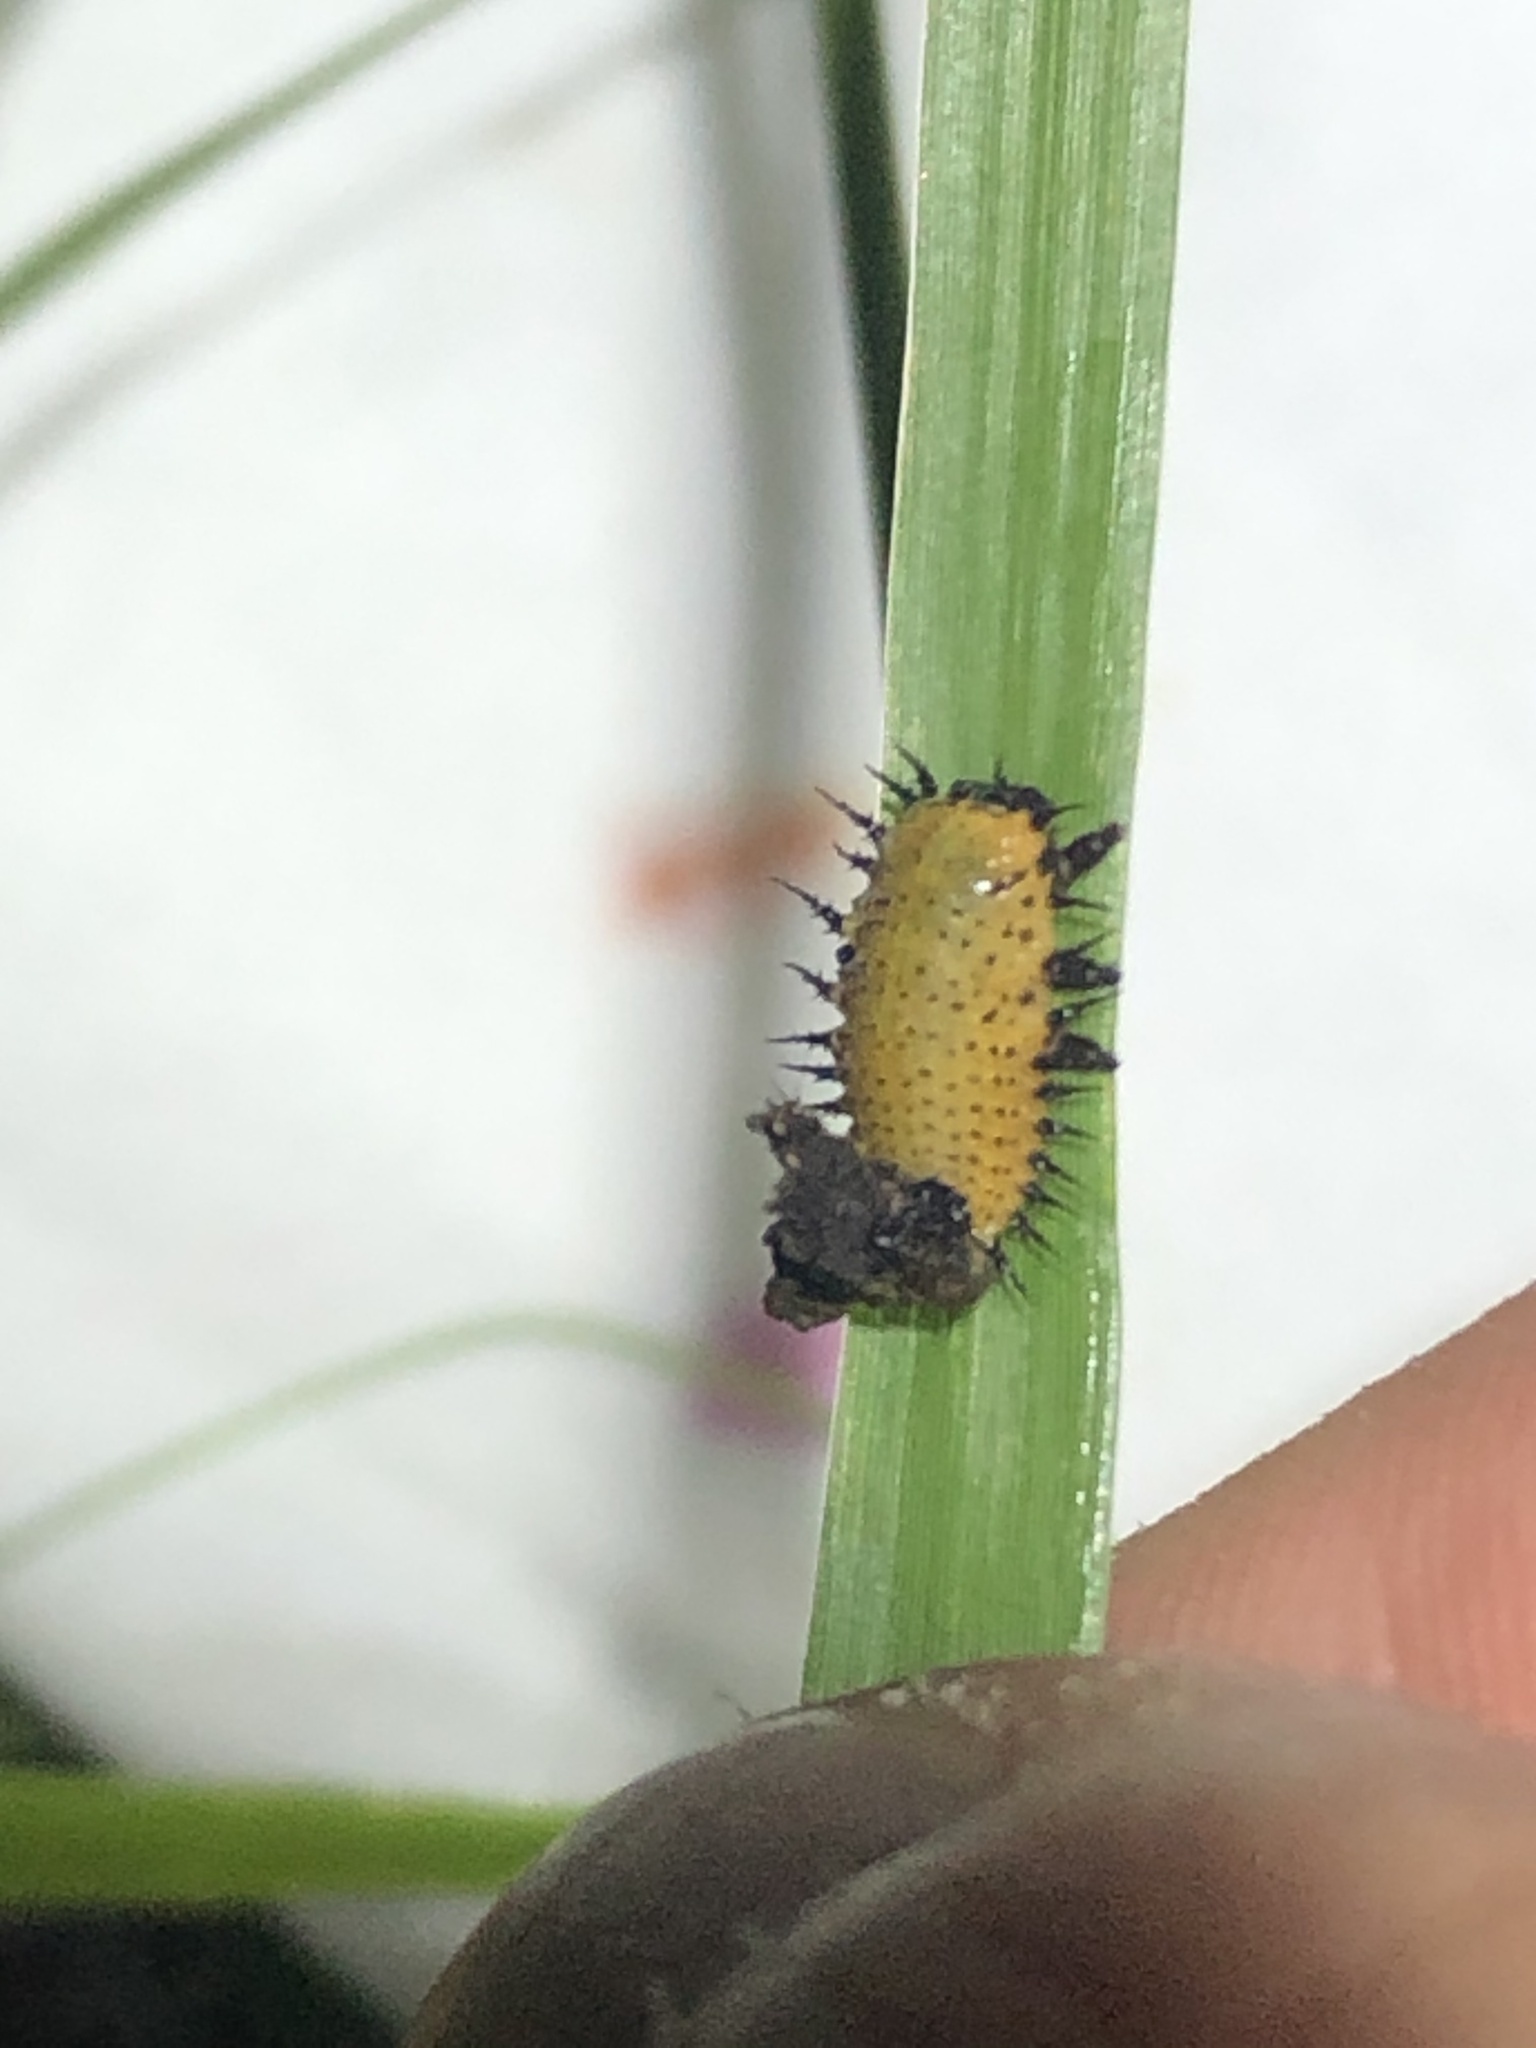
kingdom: Animalia
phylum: Arthropoda
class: Insecta
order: Coleoptera
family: Chrysomelidae
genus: Chelymorpha
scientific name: Chelymorpha phytophagica
